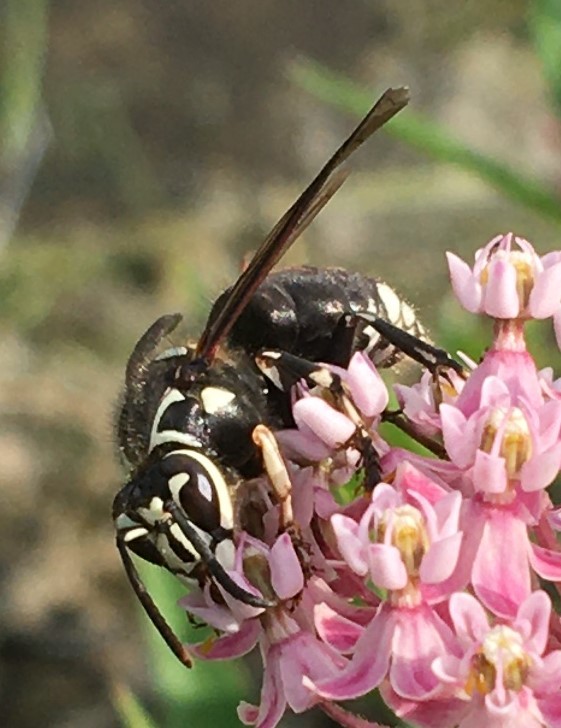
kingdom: Animalia
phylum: Arthropoda
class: Insecta
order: Hymenoptera
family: Vespidae
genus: Dolichovespula
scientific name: Dolichovespula maculata
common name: Bald-faced hornet
